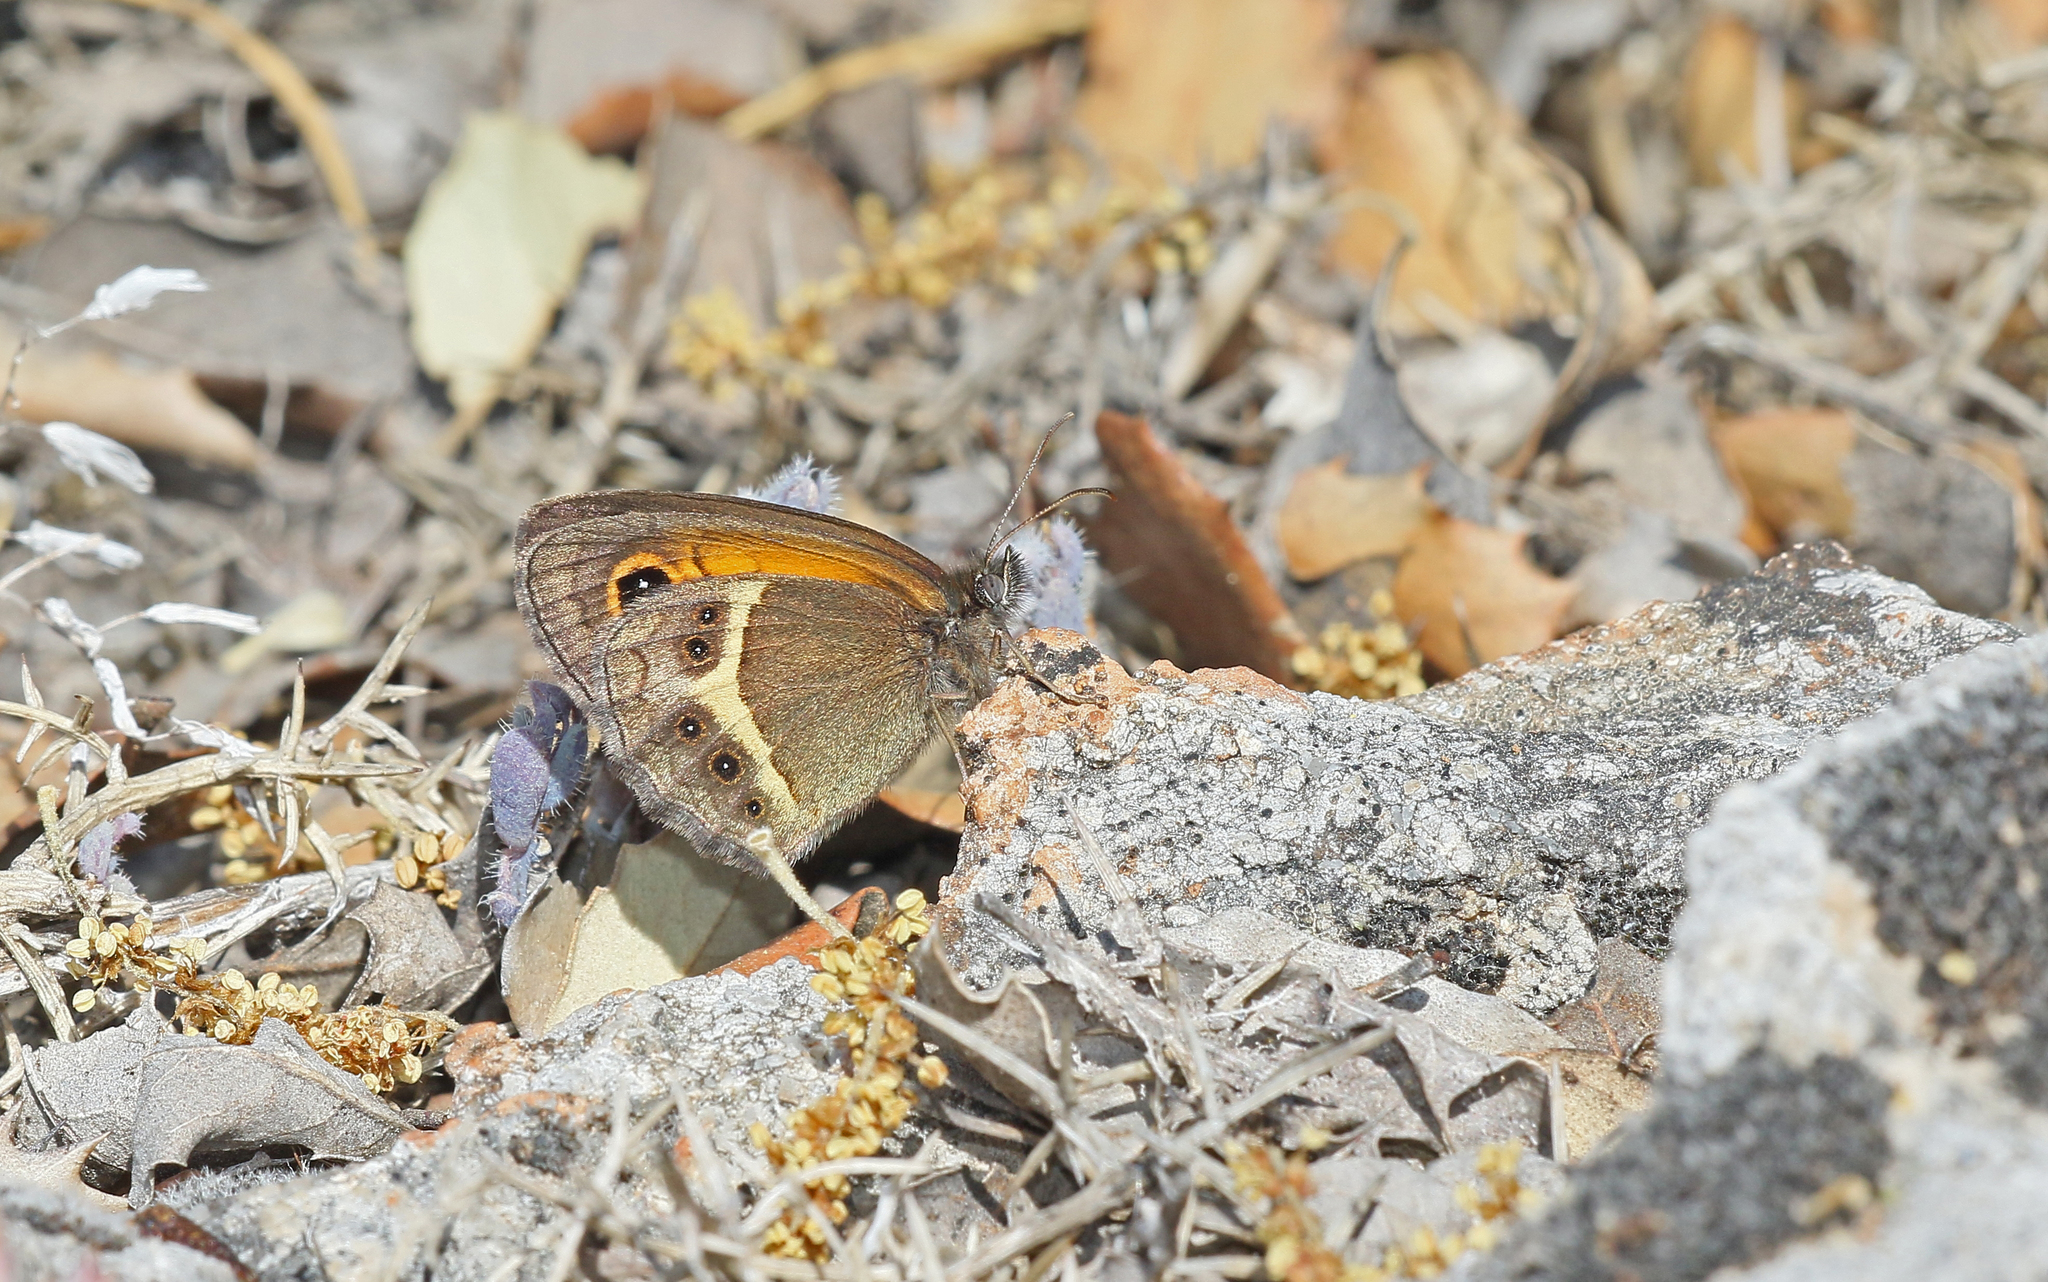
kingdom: Animalia
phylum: Arthropoda
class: Insecta
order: Lepidoptera
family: Nymphalidae
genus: Pyronia
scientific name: Pyronia bathseba
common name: Spanish gatekeeper
